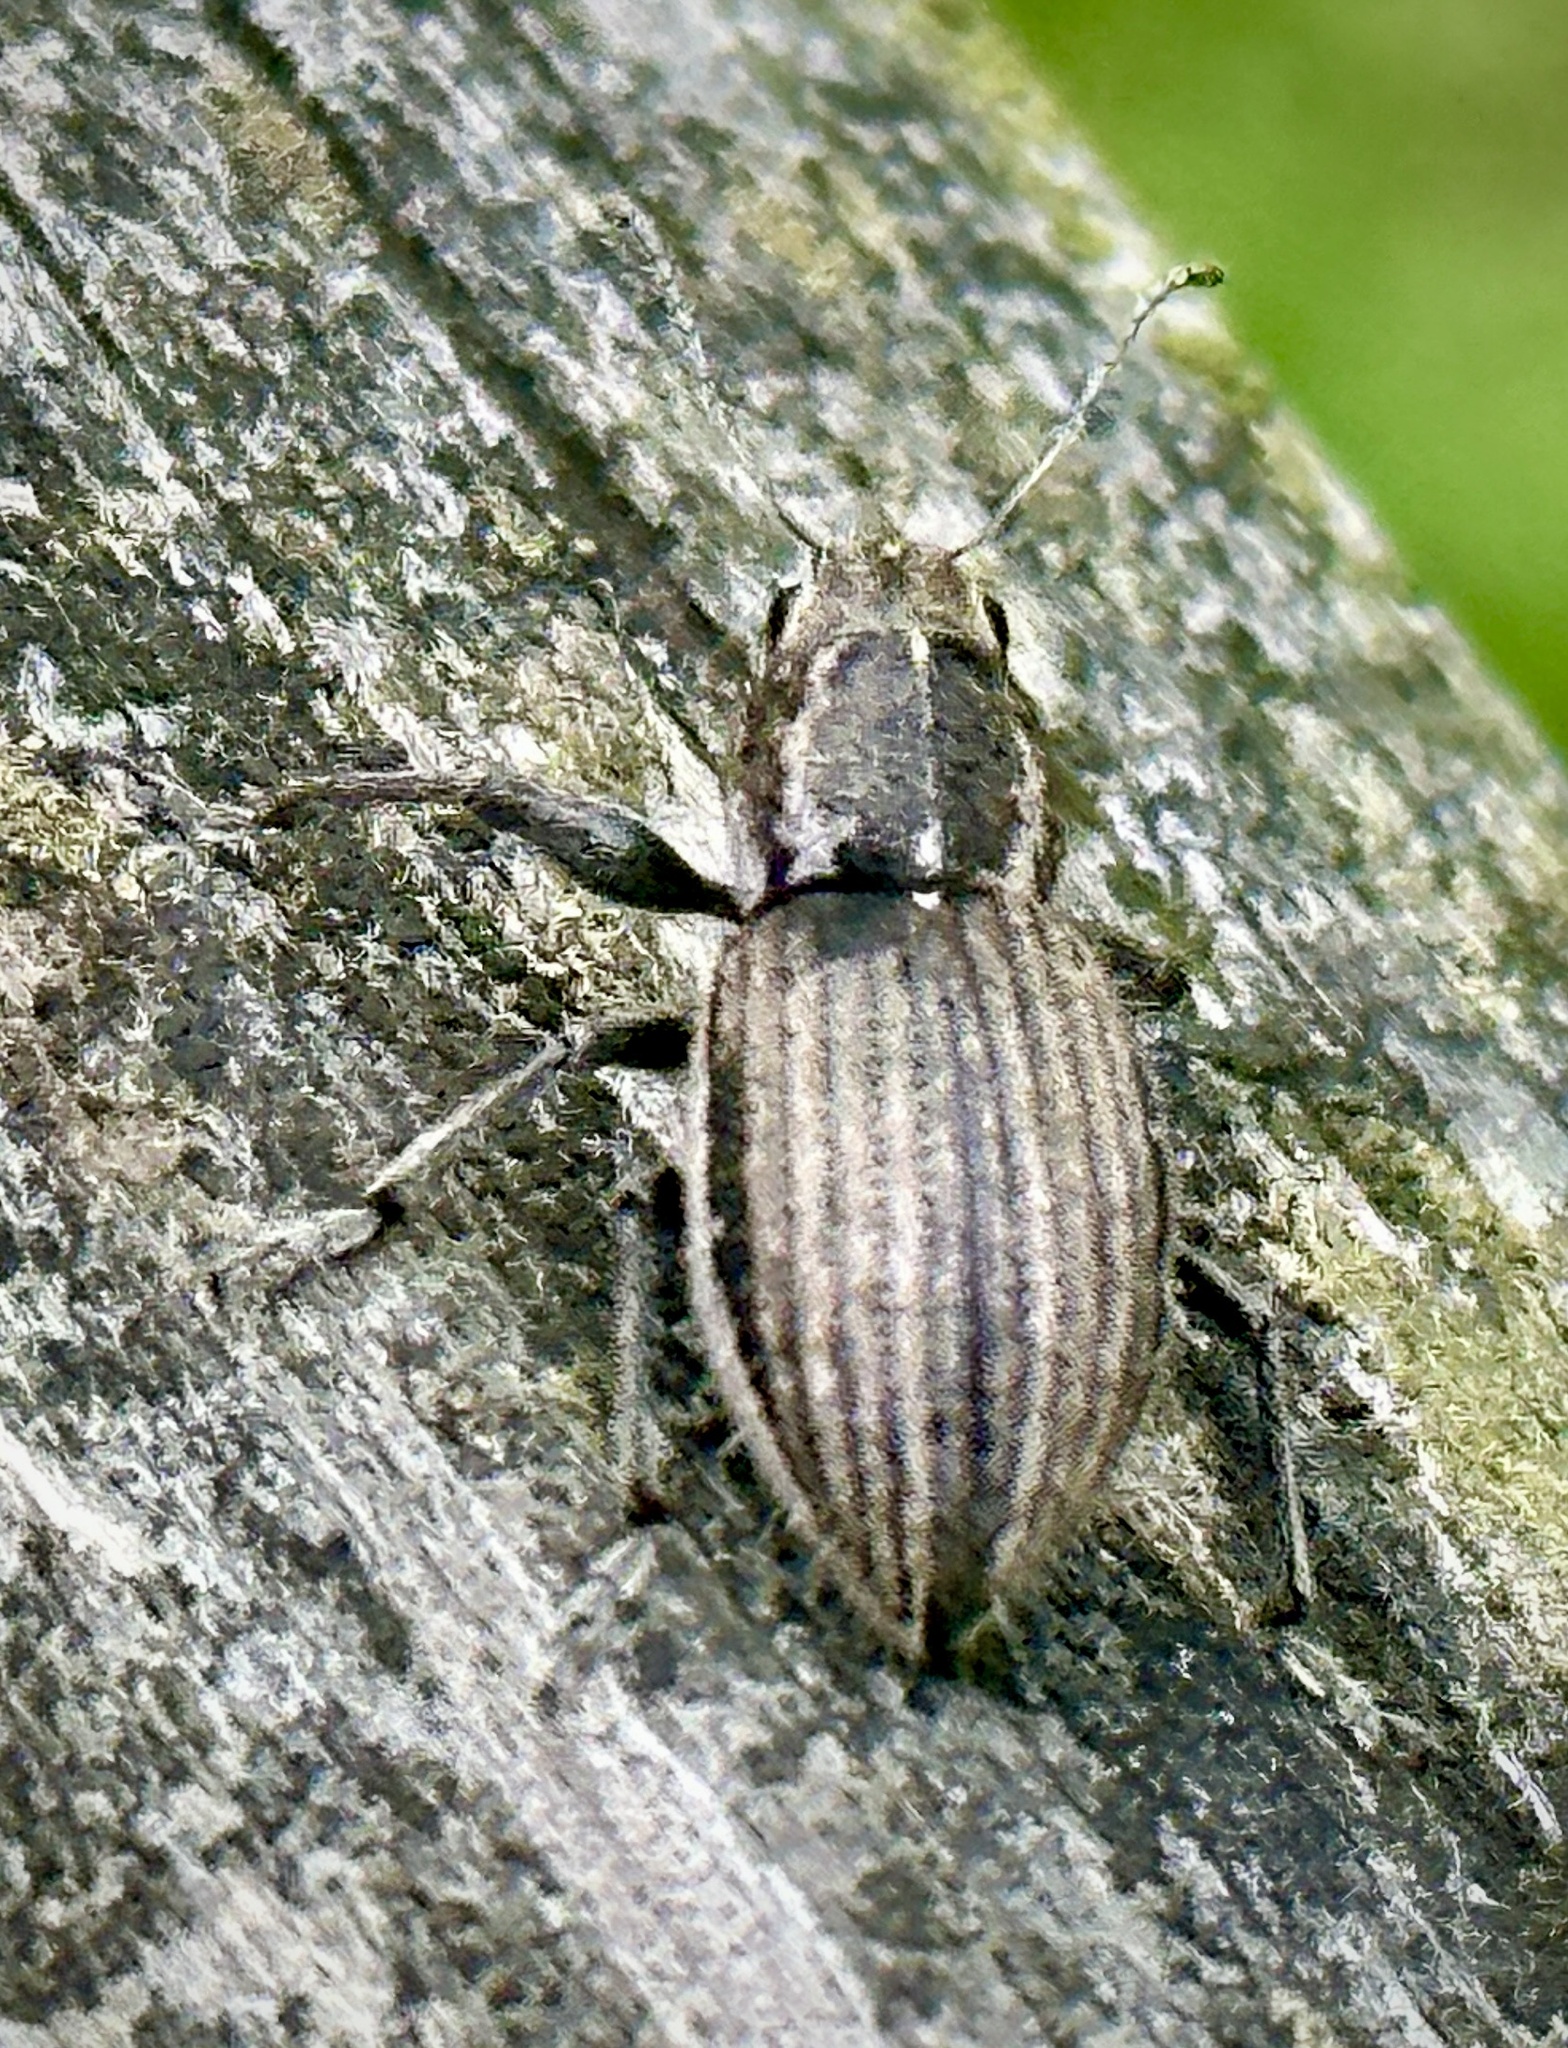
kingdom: Animalia
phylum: Arthropoda
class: Insecta
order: Coleoptera
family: Curculionidae
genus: Naupactus
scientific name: Naupactus leucoloma
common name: Whitefringed beetle
